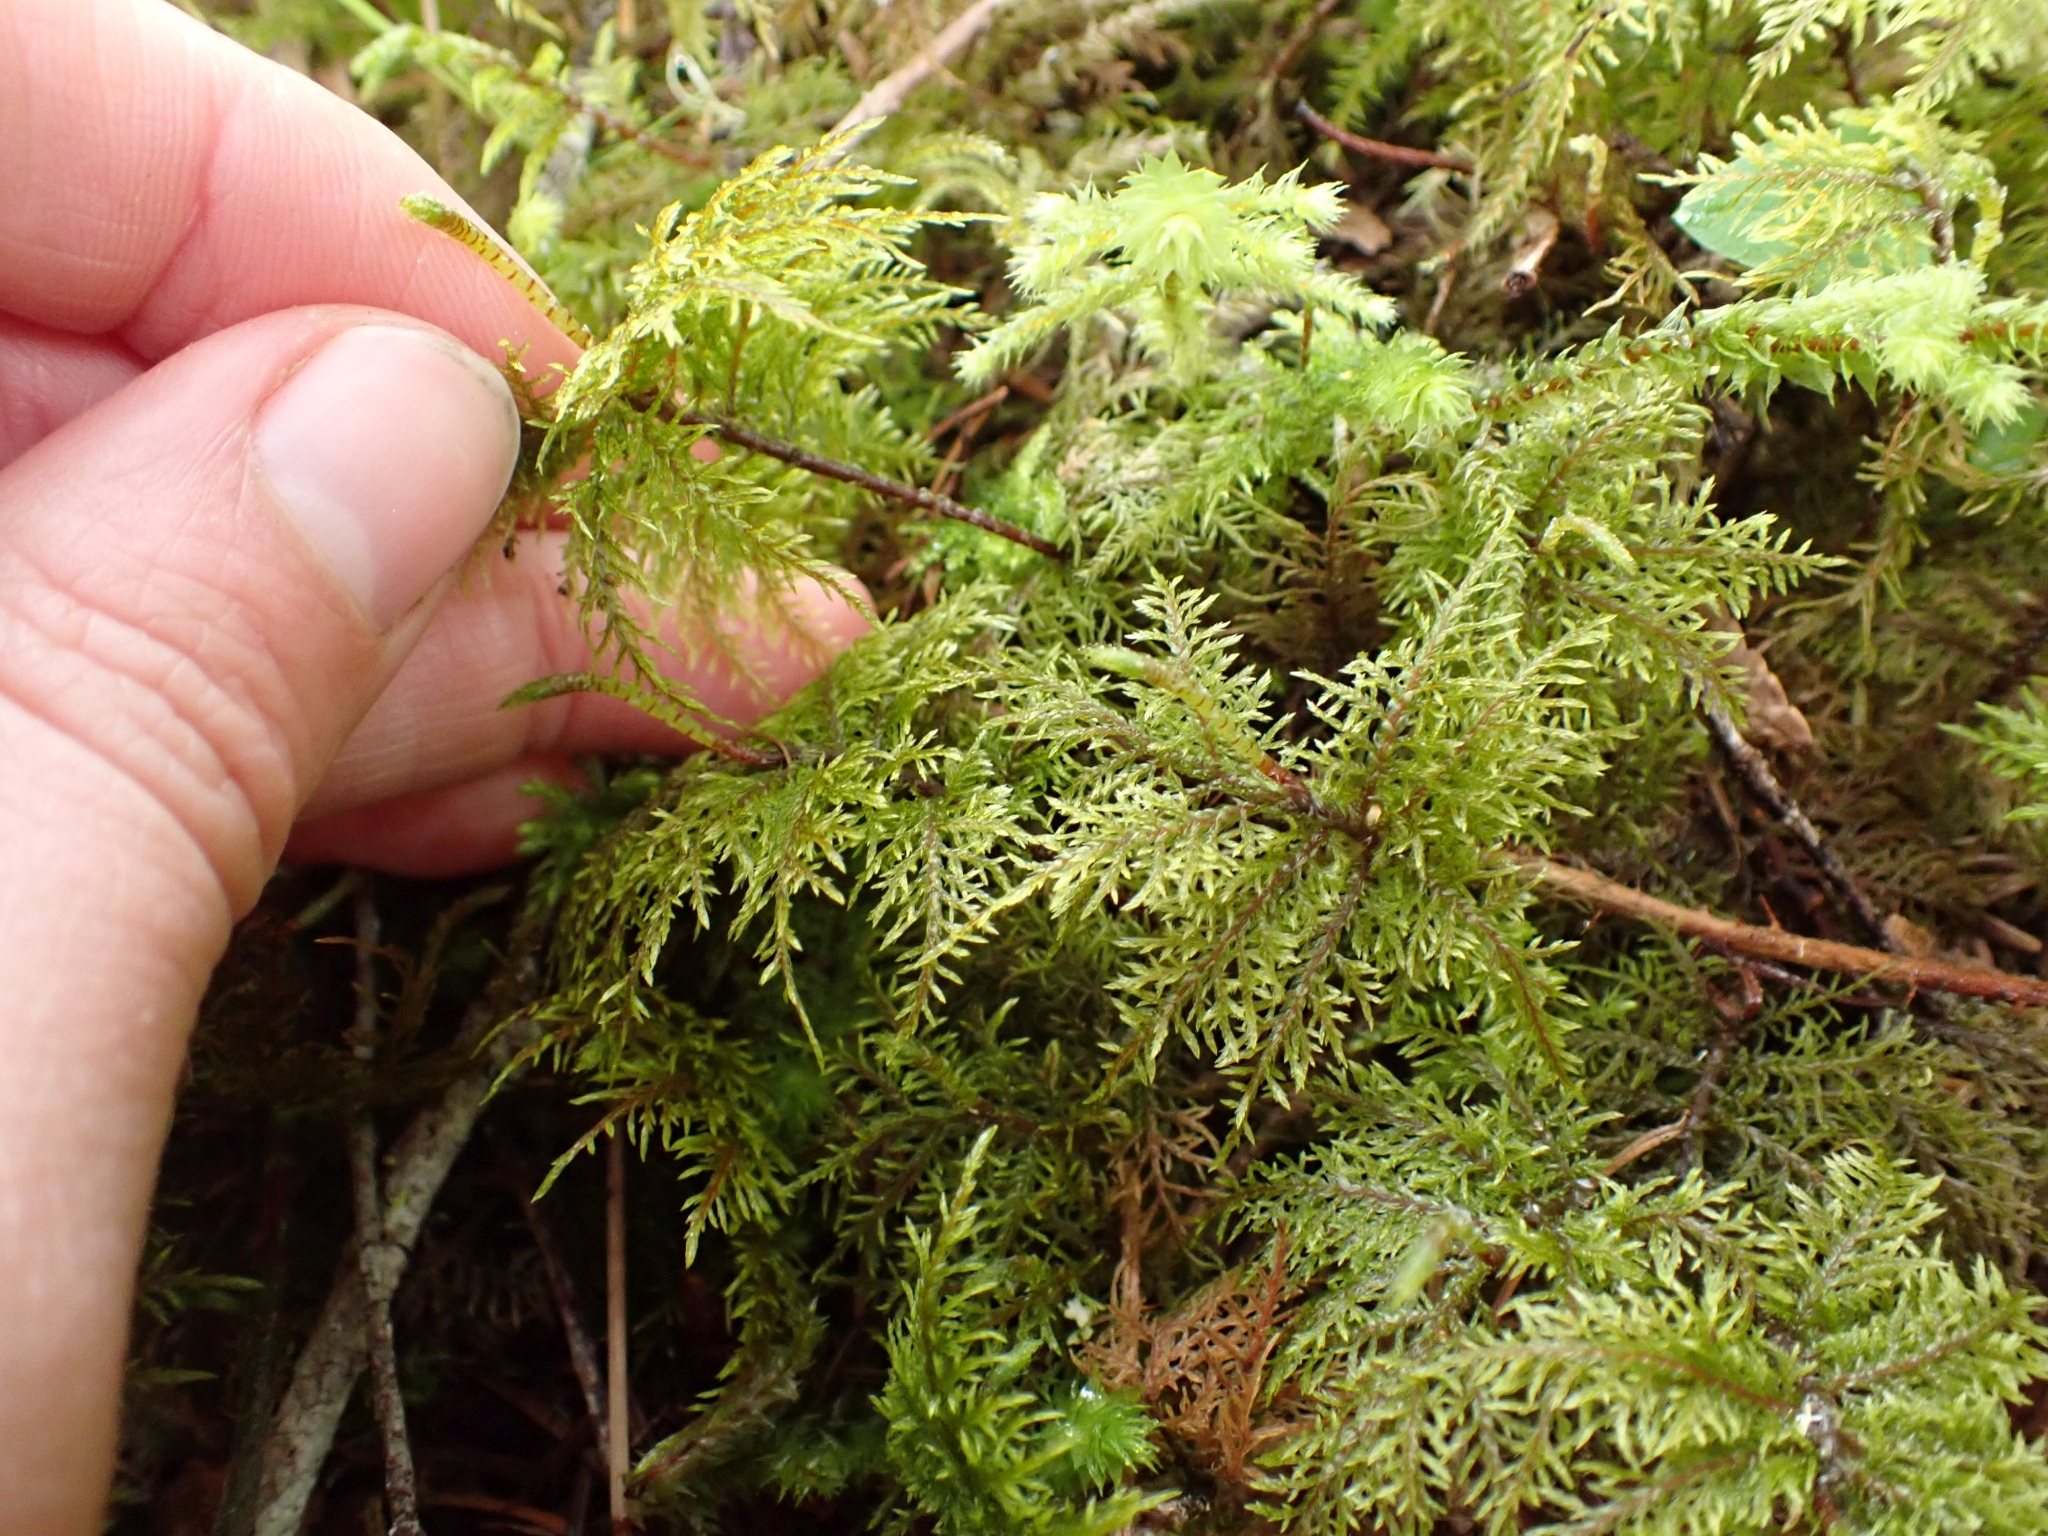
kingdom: Plantae
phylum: Bryophyta
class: Bryopsida
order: Hypnales
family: Hylocomiaceae
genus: Hylocomium
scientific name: Hylocomium splendens
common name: Stairstep moss
